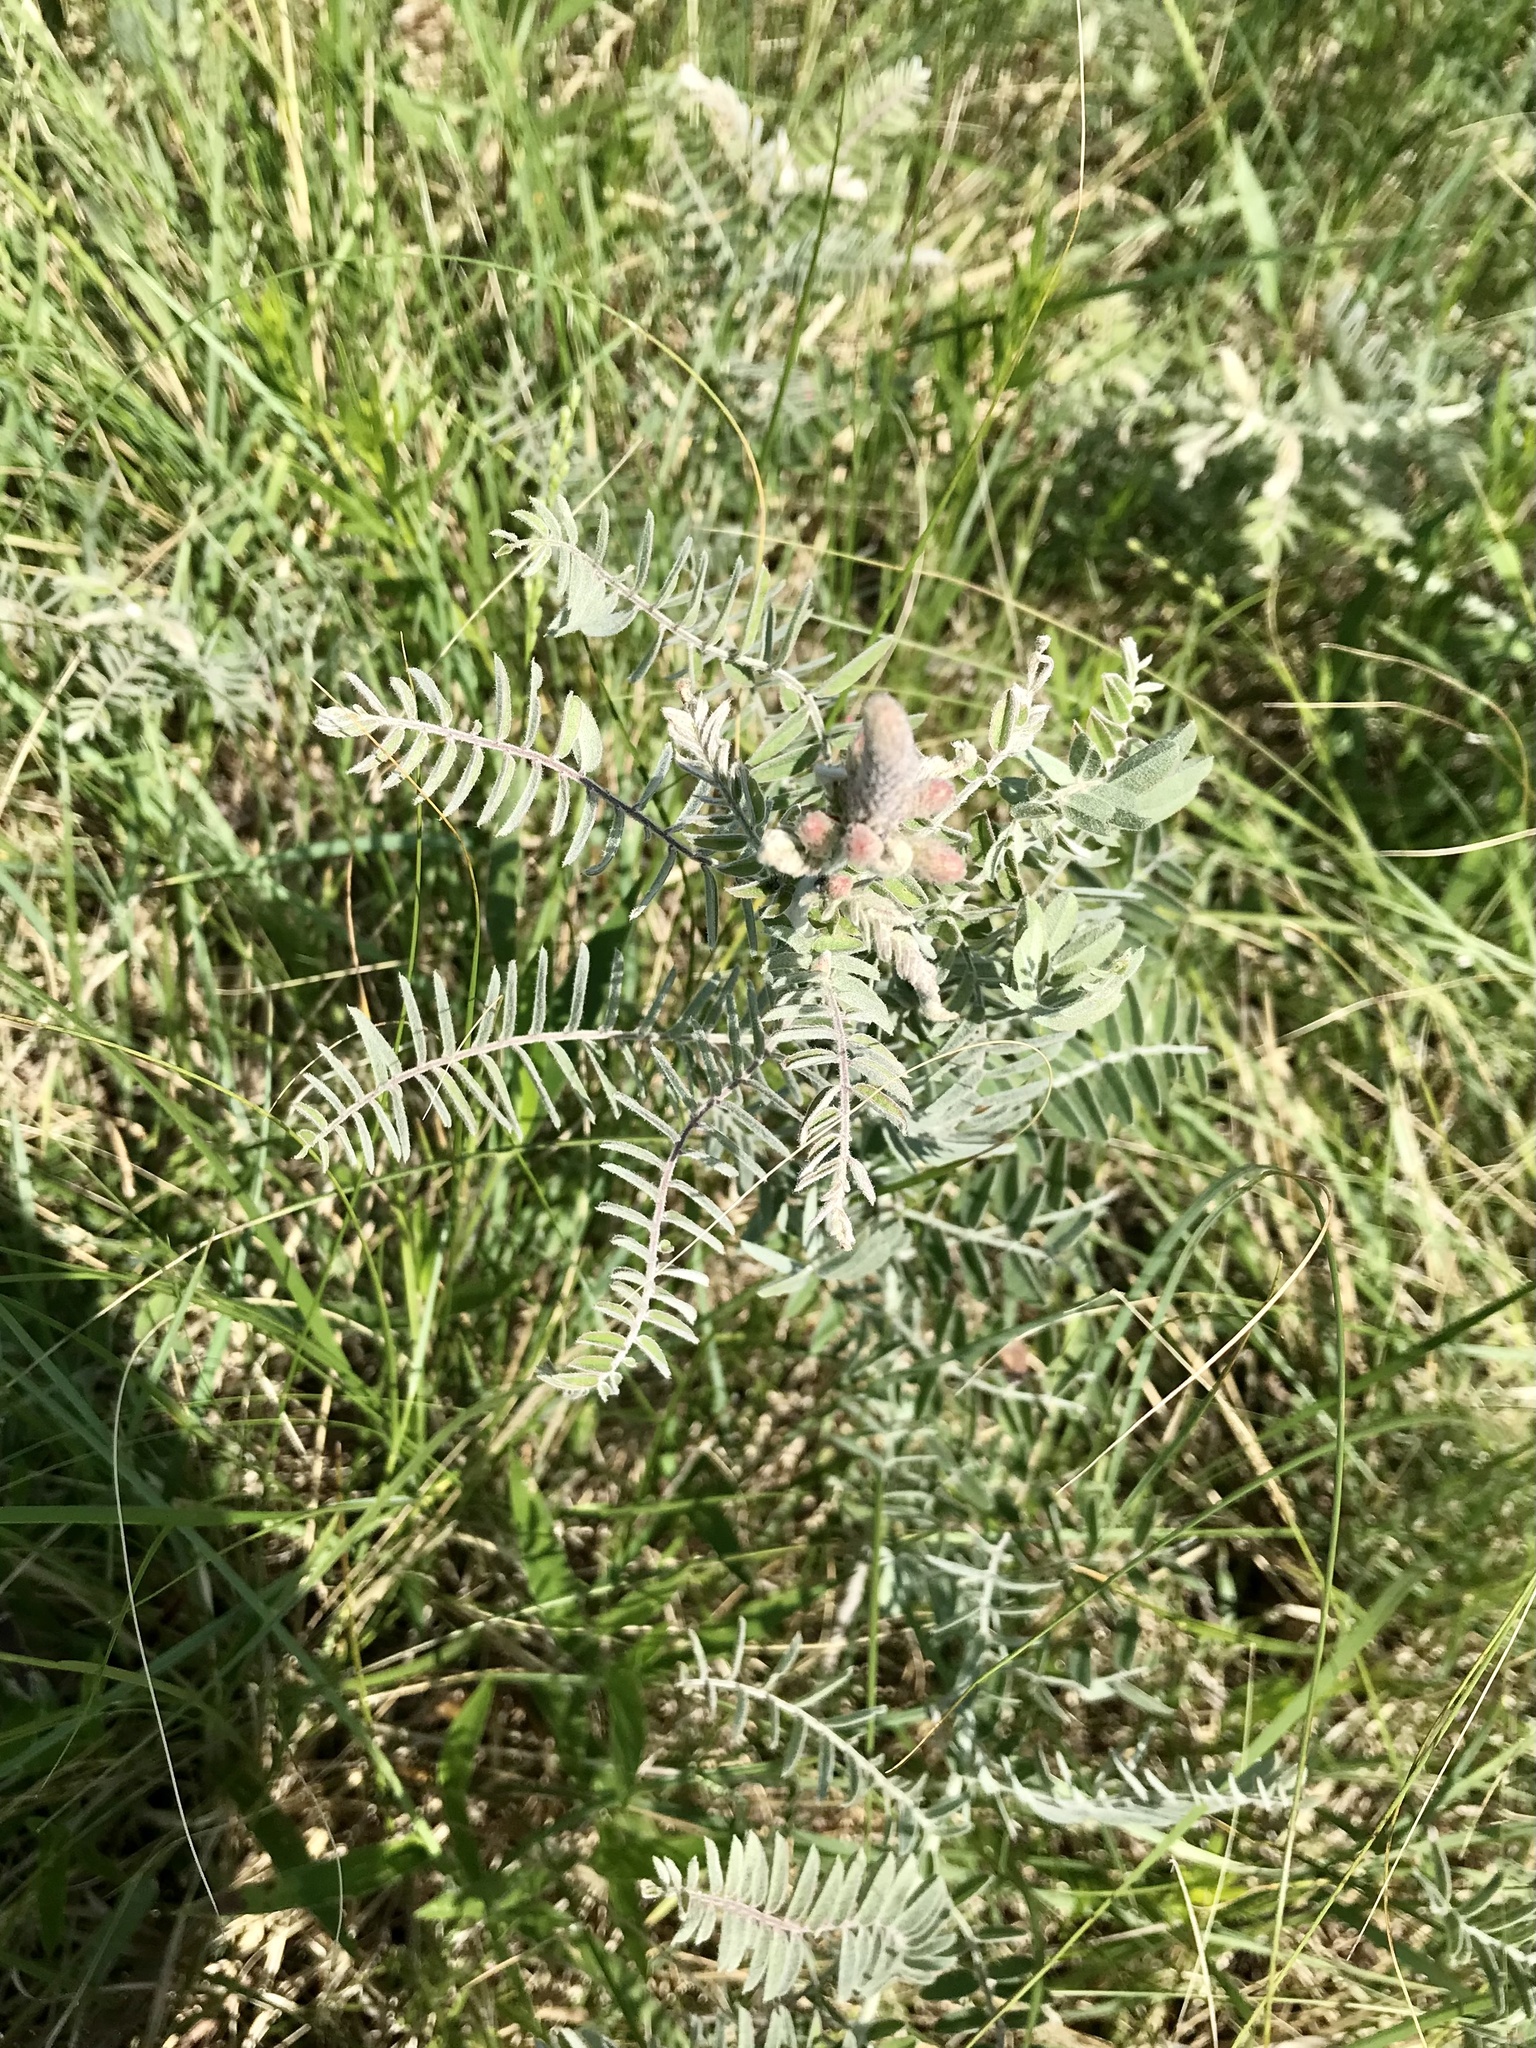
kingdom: Plantae
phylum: Tracheophyta
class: Magnoliopsida
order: Fabales
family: Fabaceae
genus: Amorpha
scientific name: Amorpha canescens
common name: Leadplant
